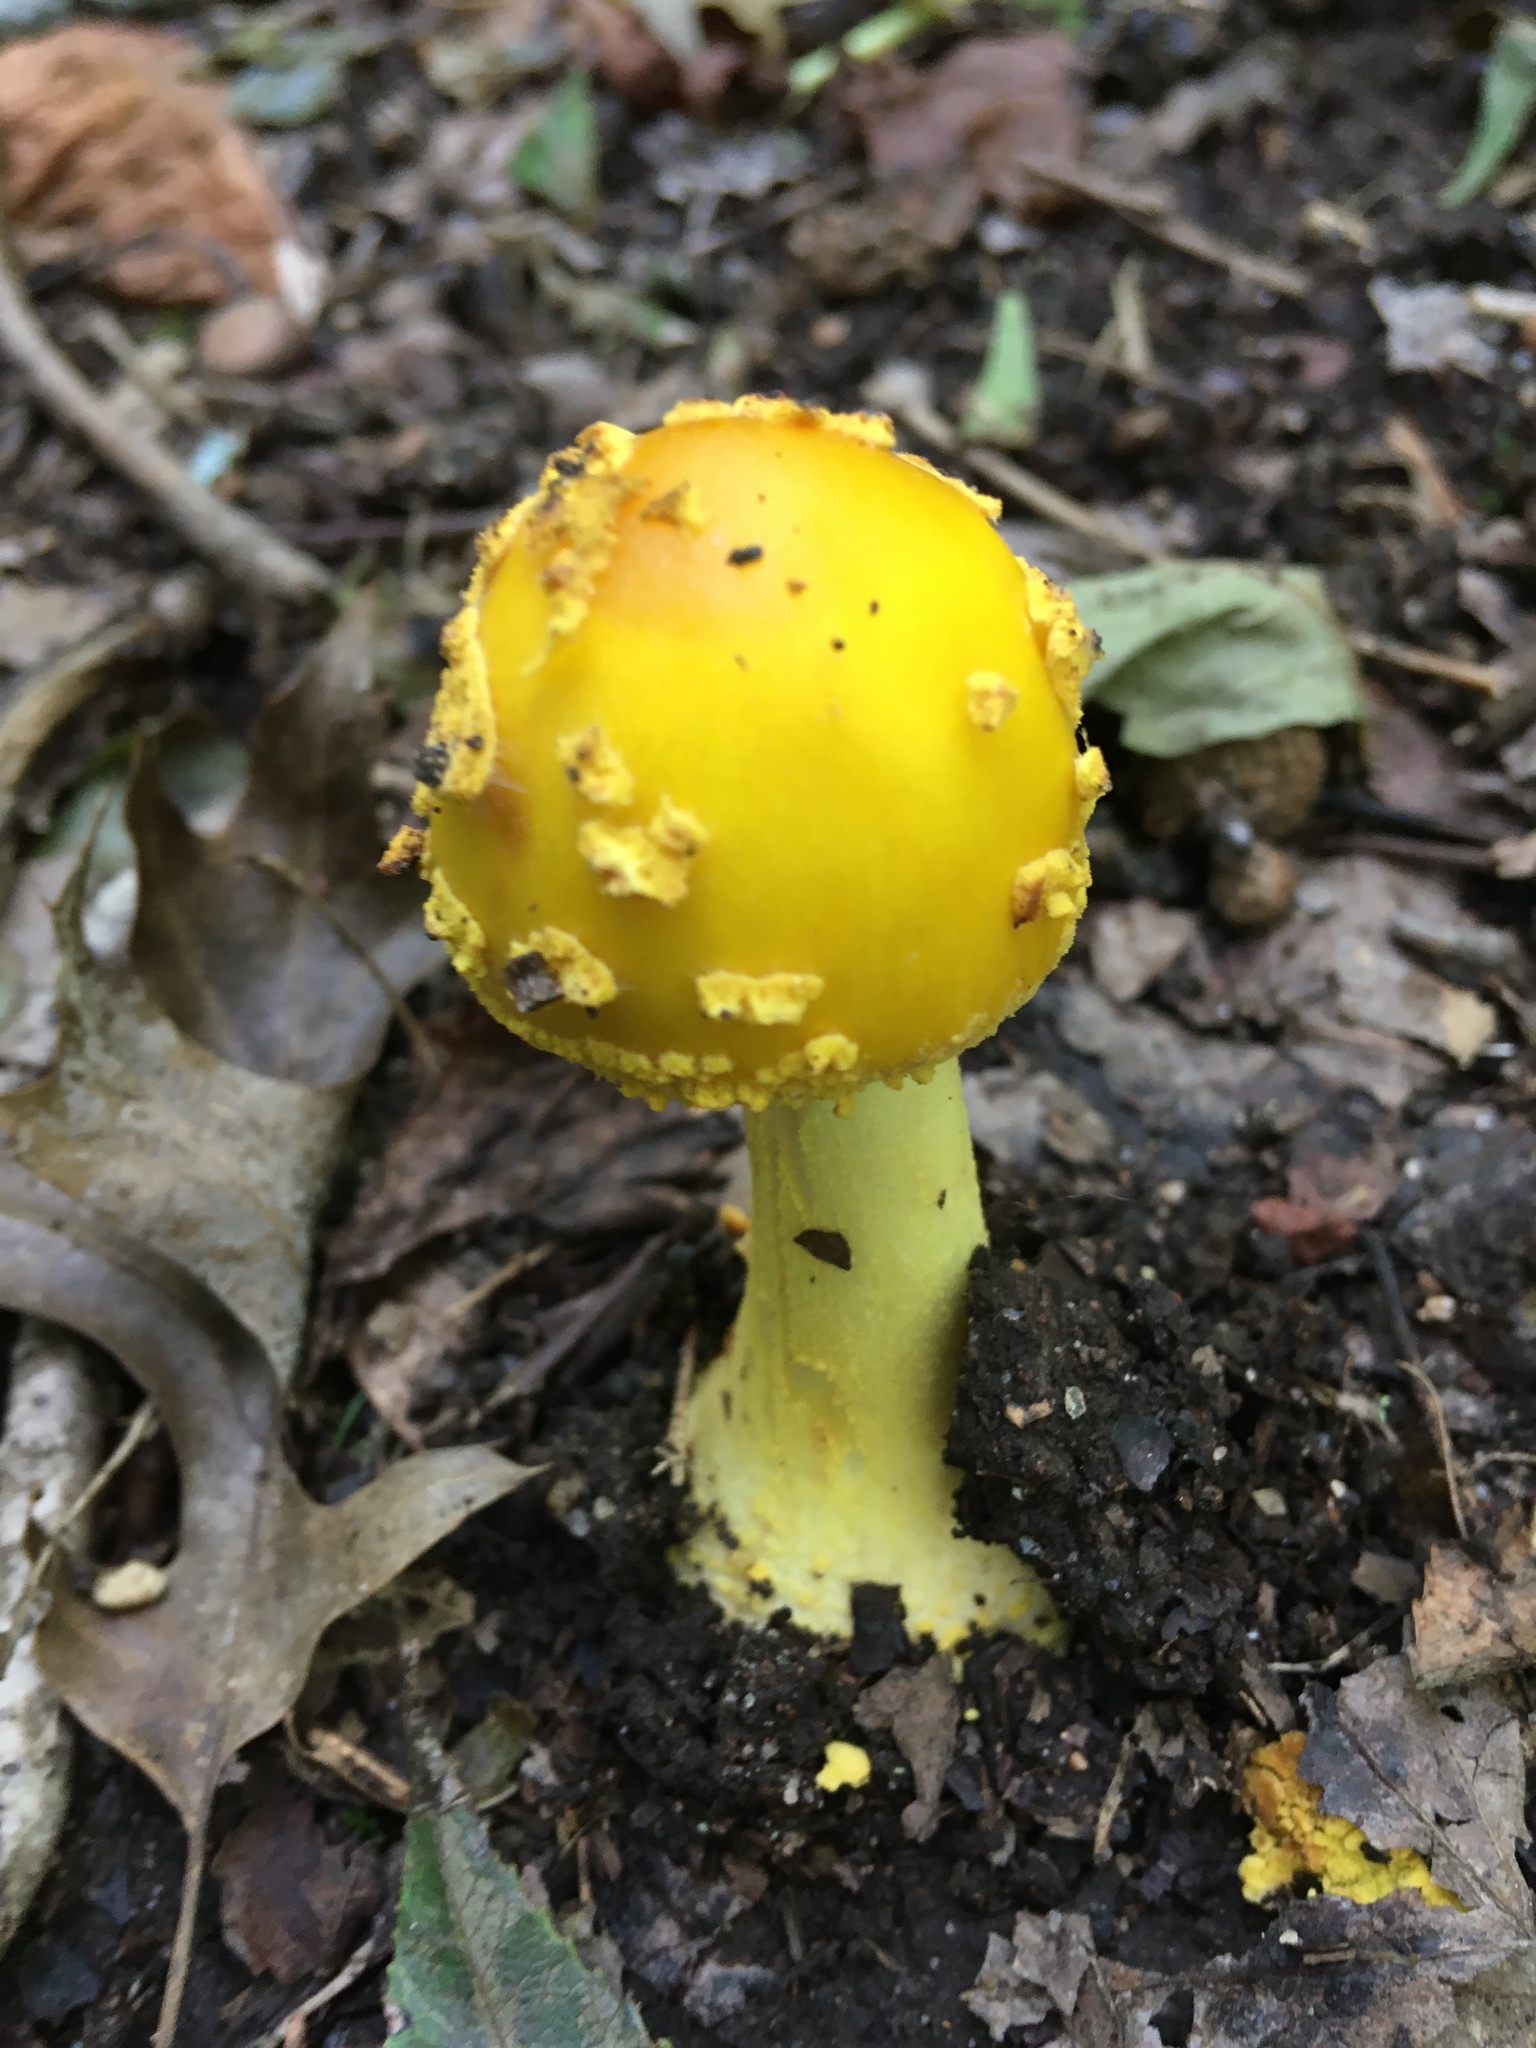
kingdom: Fungi
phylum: Basidiomycota
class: Agaricomycetes
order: Agaricales
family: Amanitaceae
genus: Amanita
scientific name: Amanita flavoconia
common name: Yellow patches
